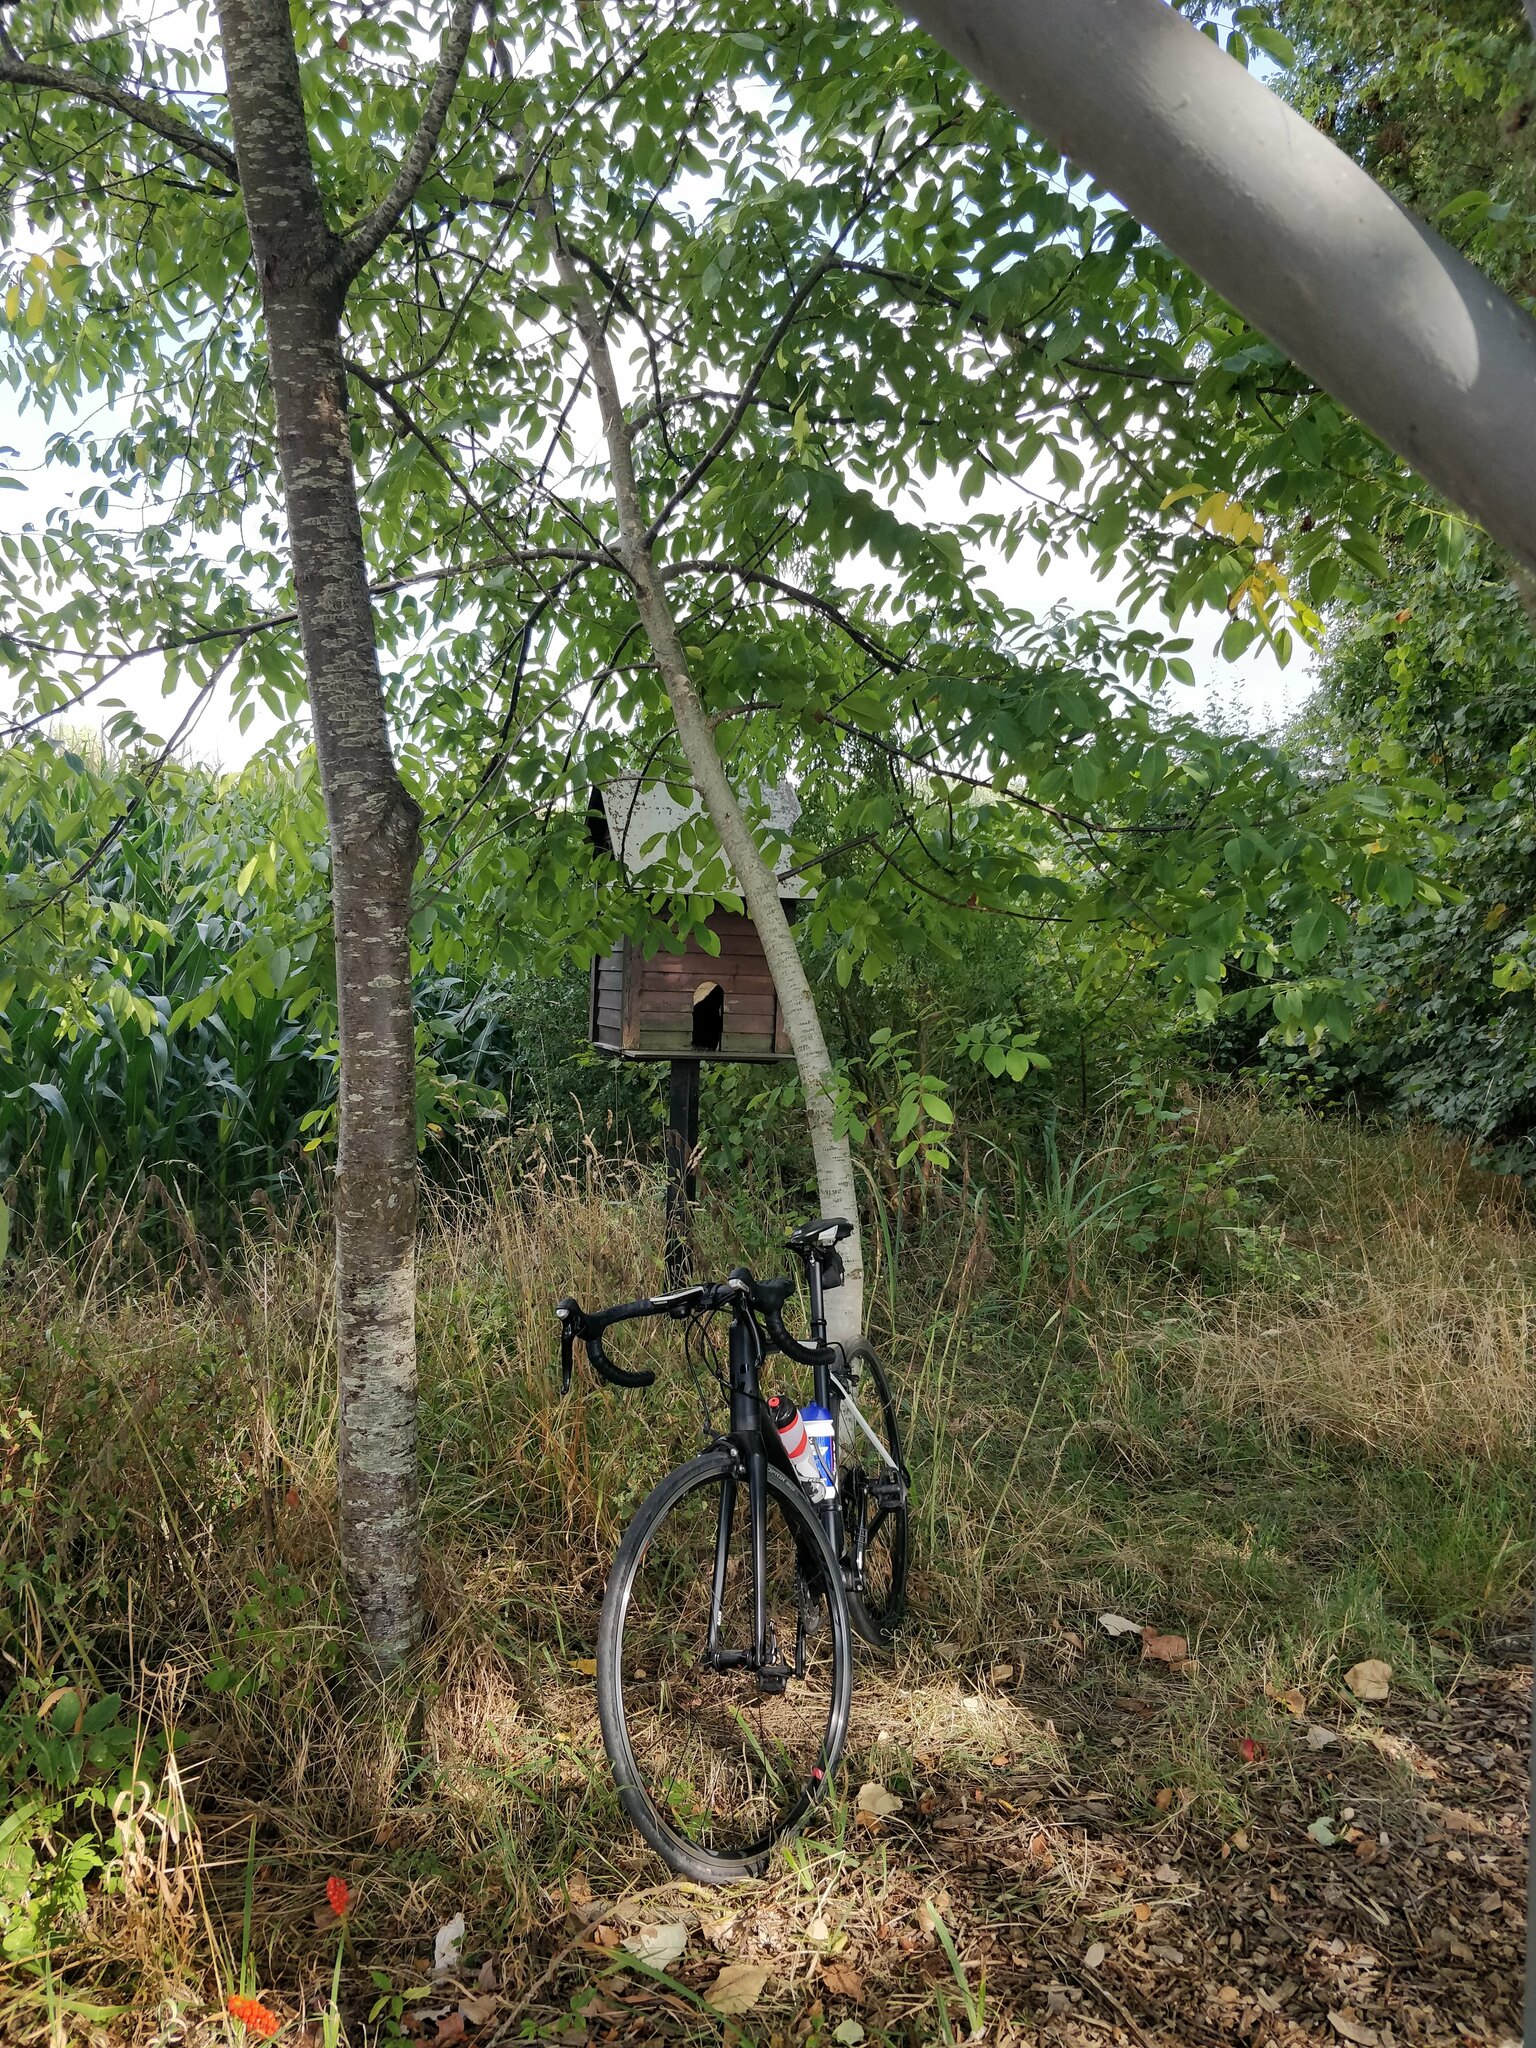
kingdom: Animalia
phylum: Arthropoda
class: Insecta
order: Hymenoptera
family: Vespidae
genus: Vespa
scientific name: Vespa velutina
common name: Asian hornet
